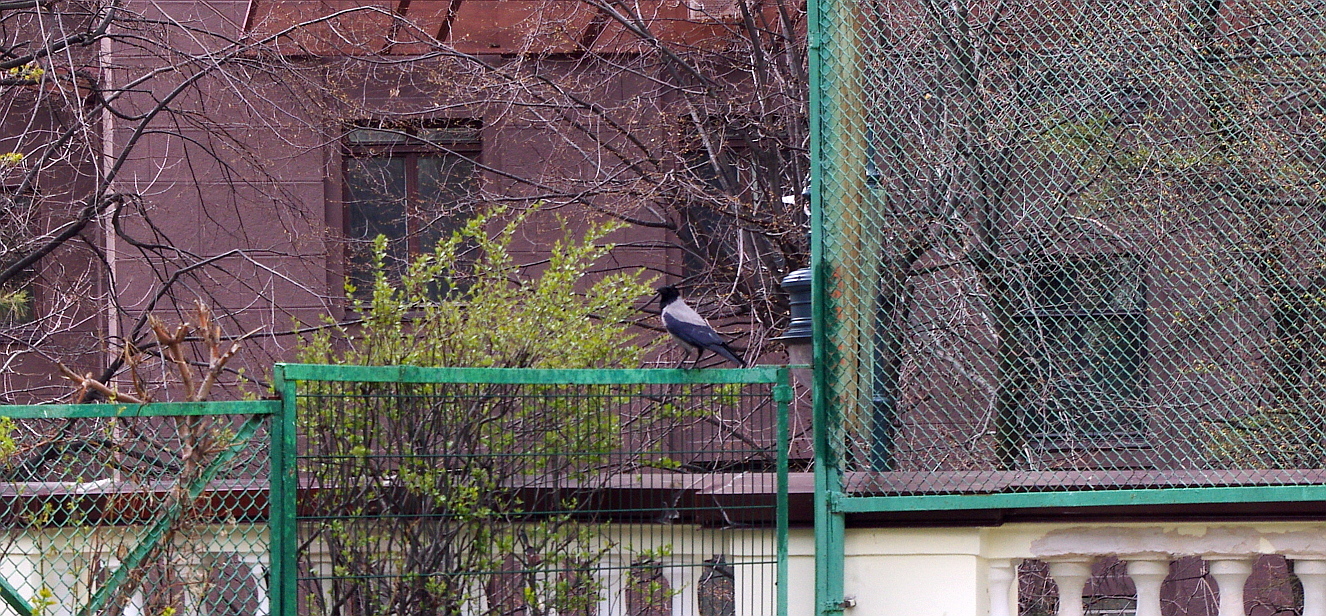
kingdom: Animalia
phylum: Chordata
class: Aves
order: Passeriformes
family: Corvidae
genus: Corvus
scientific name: Corvus cornix
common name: Hooded crow
